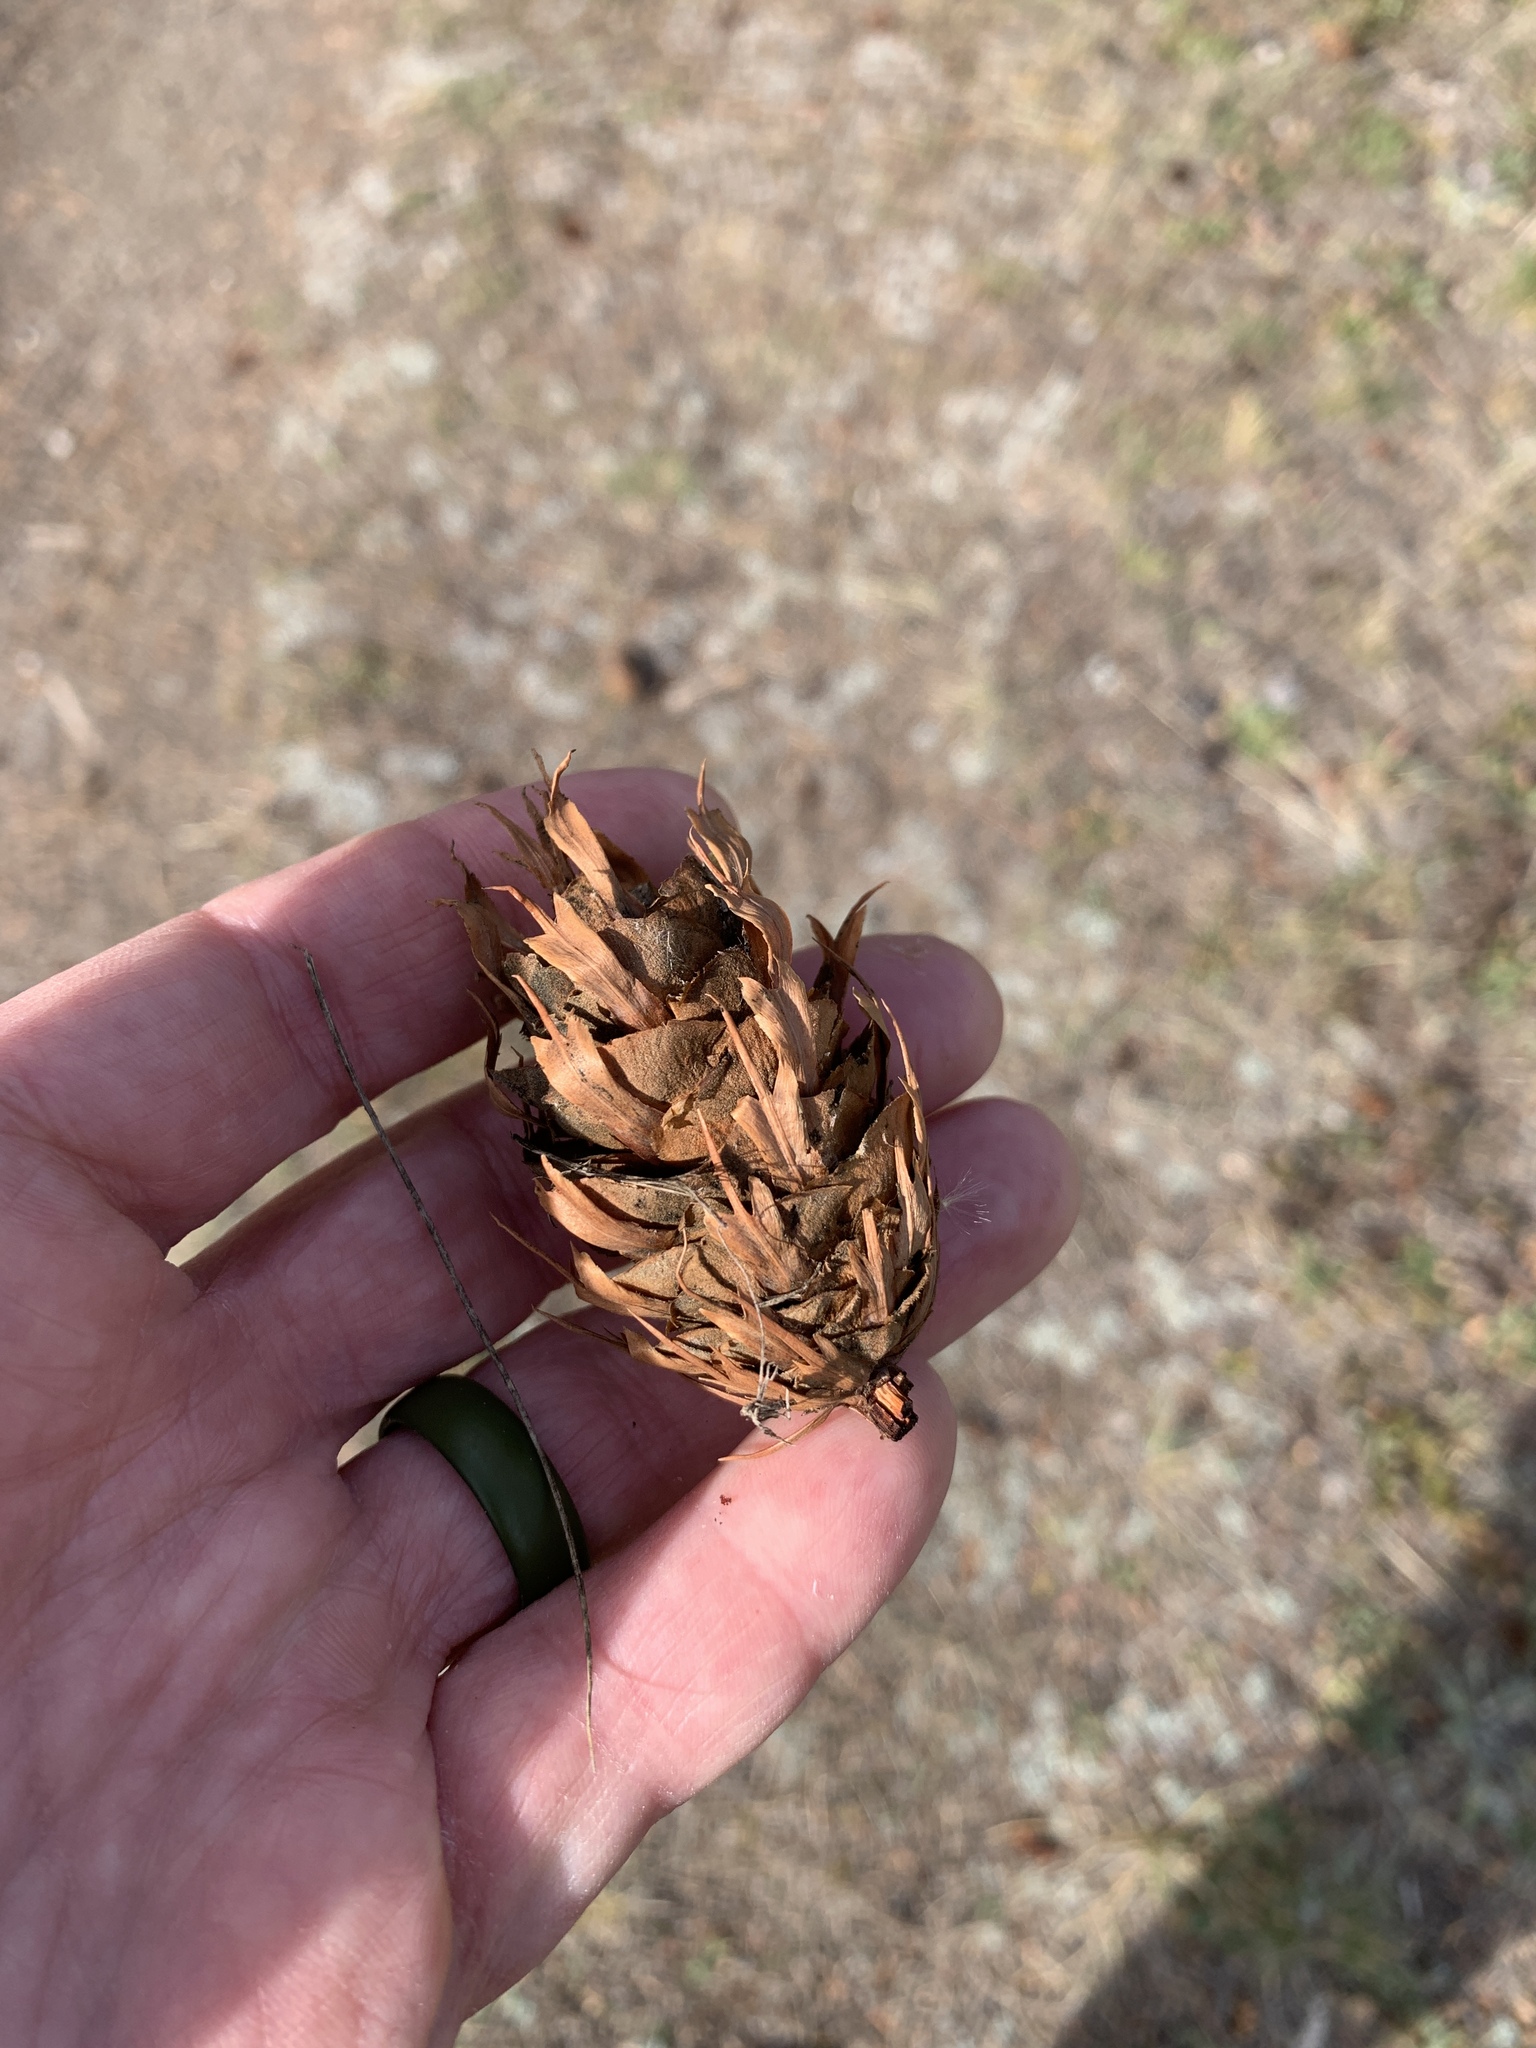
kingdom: Plantae
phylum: Tracheophyta
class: Pinopsida
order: Pinales
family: Pinaceae
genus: Pseudotsuga
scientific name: Pseudotsuga menziesii
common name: Douglas fir
